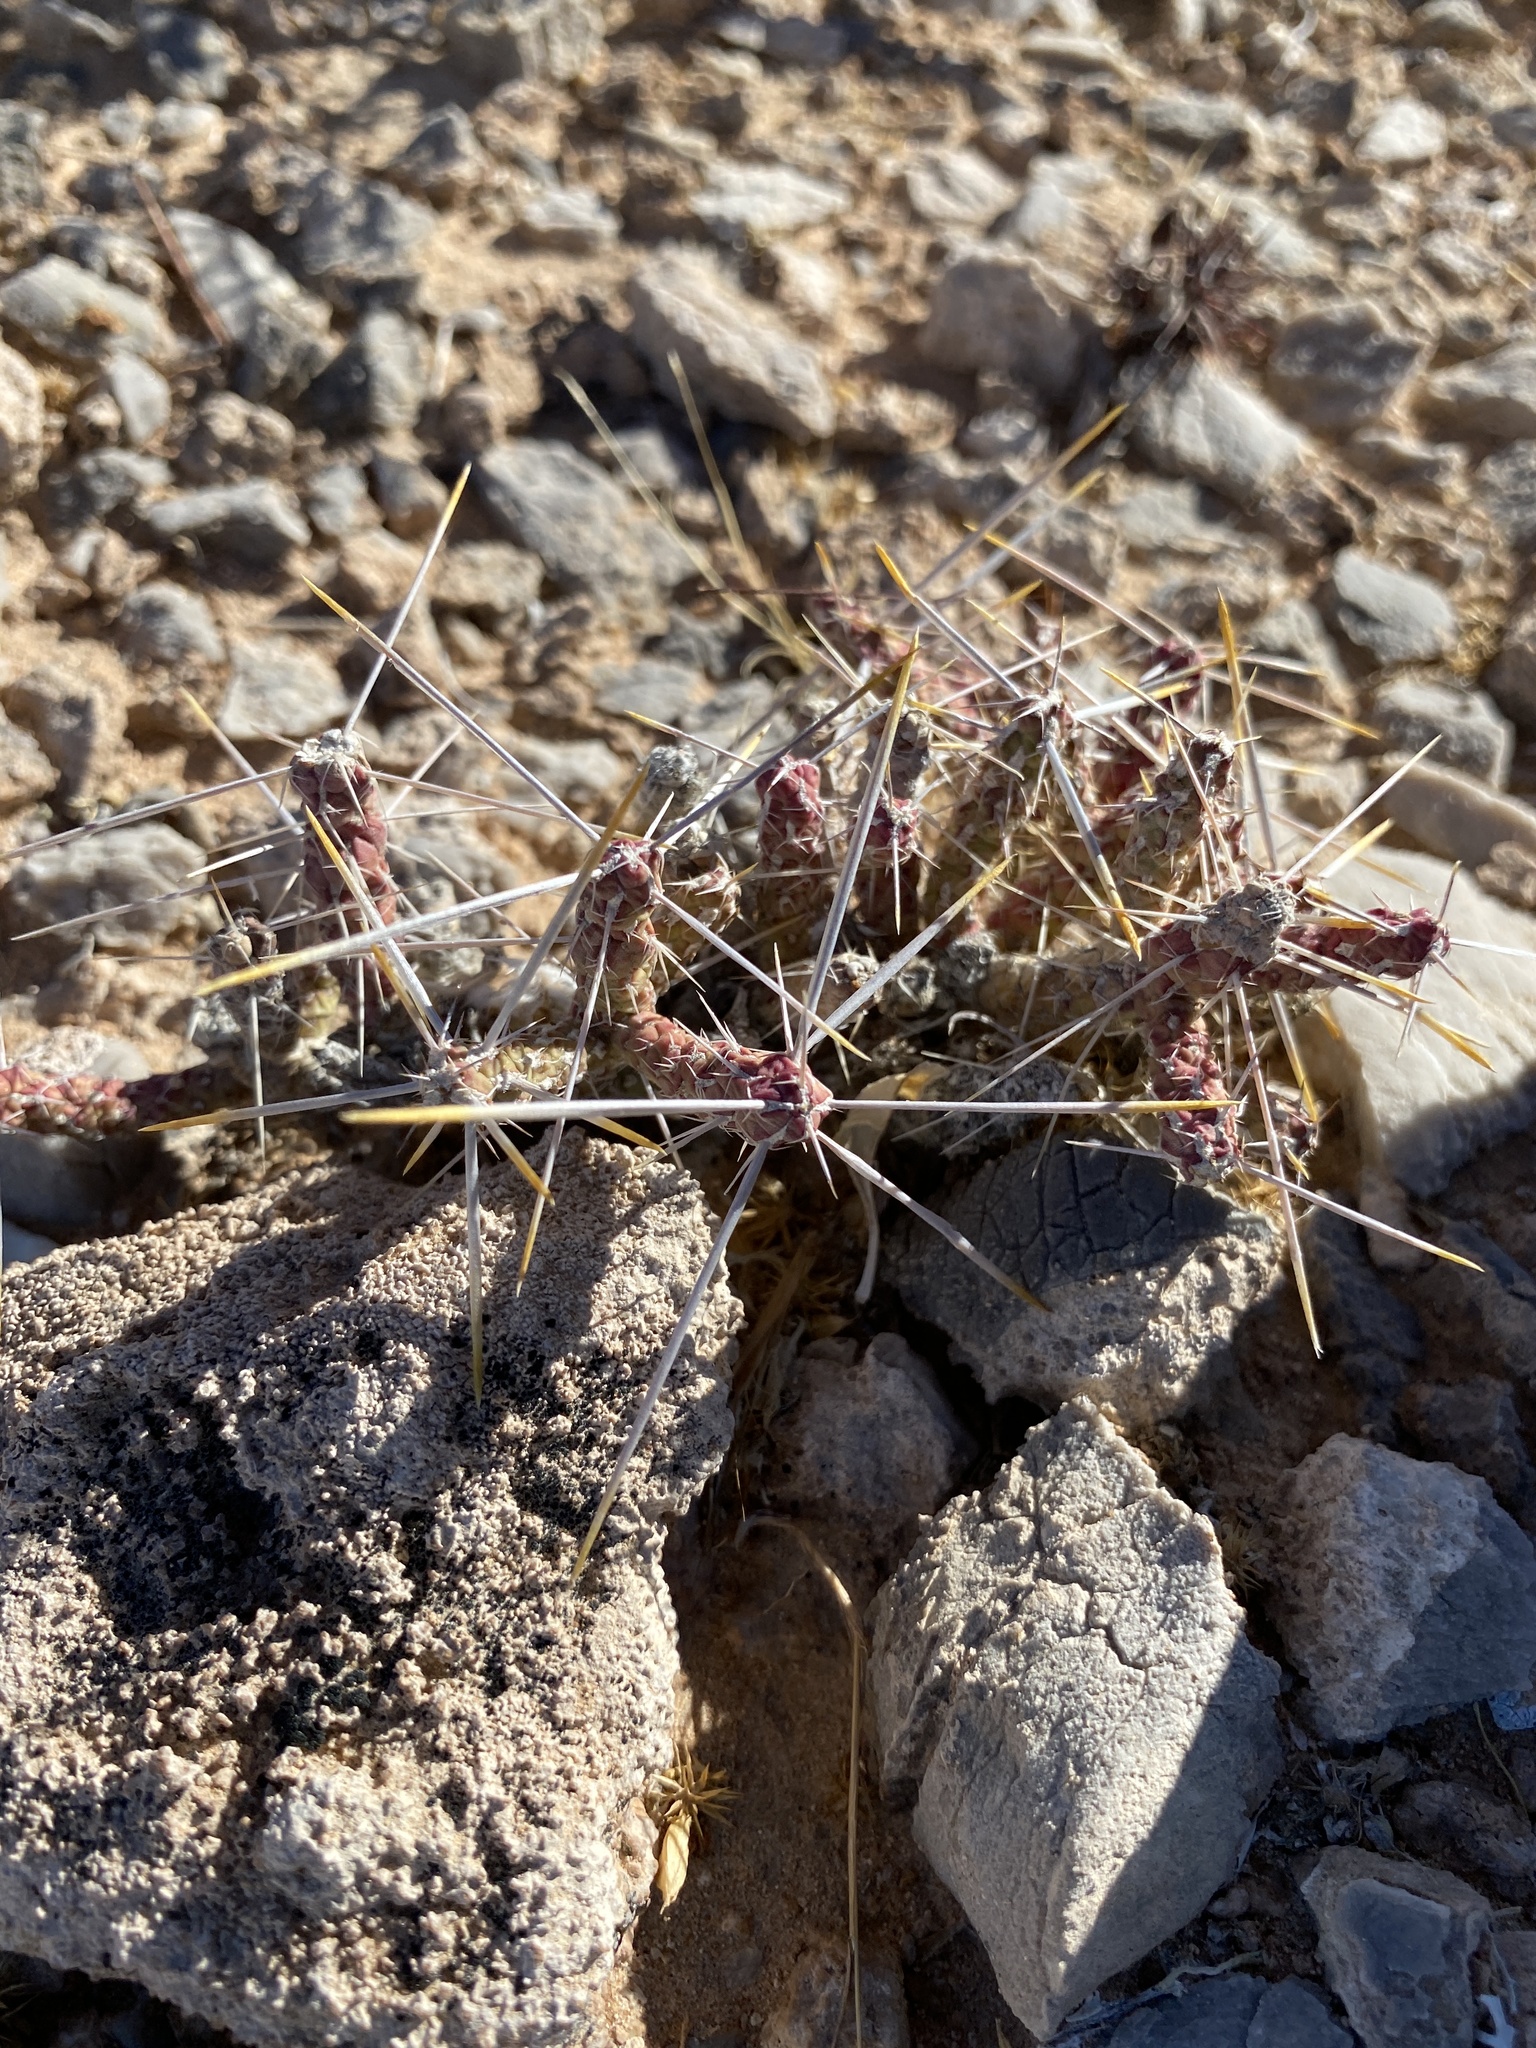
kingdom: Plantae
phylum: Tracheophyta
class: Magnoliopsida
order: Caryophyllales
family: Cactaceae
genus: Cylindropuntia
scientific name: Cylindropuntia ramosissima
